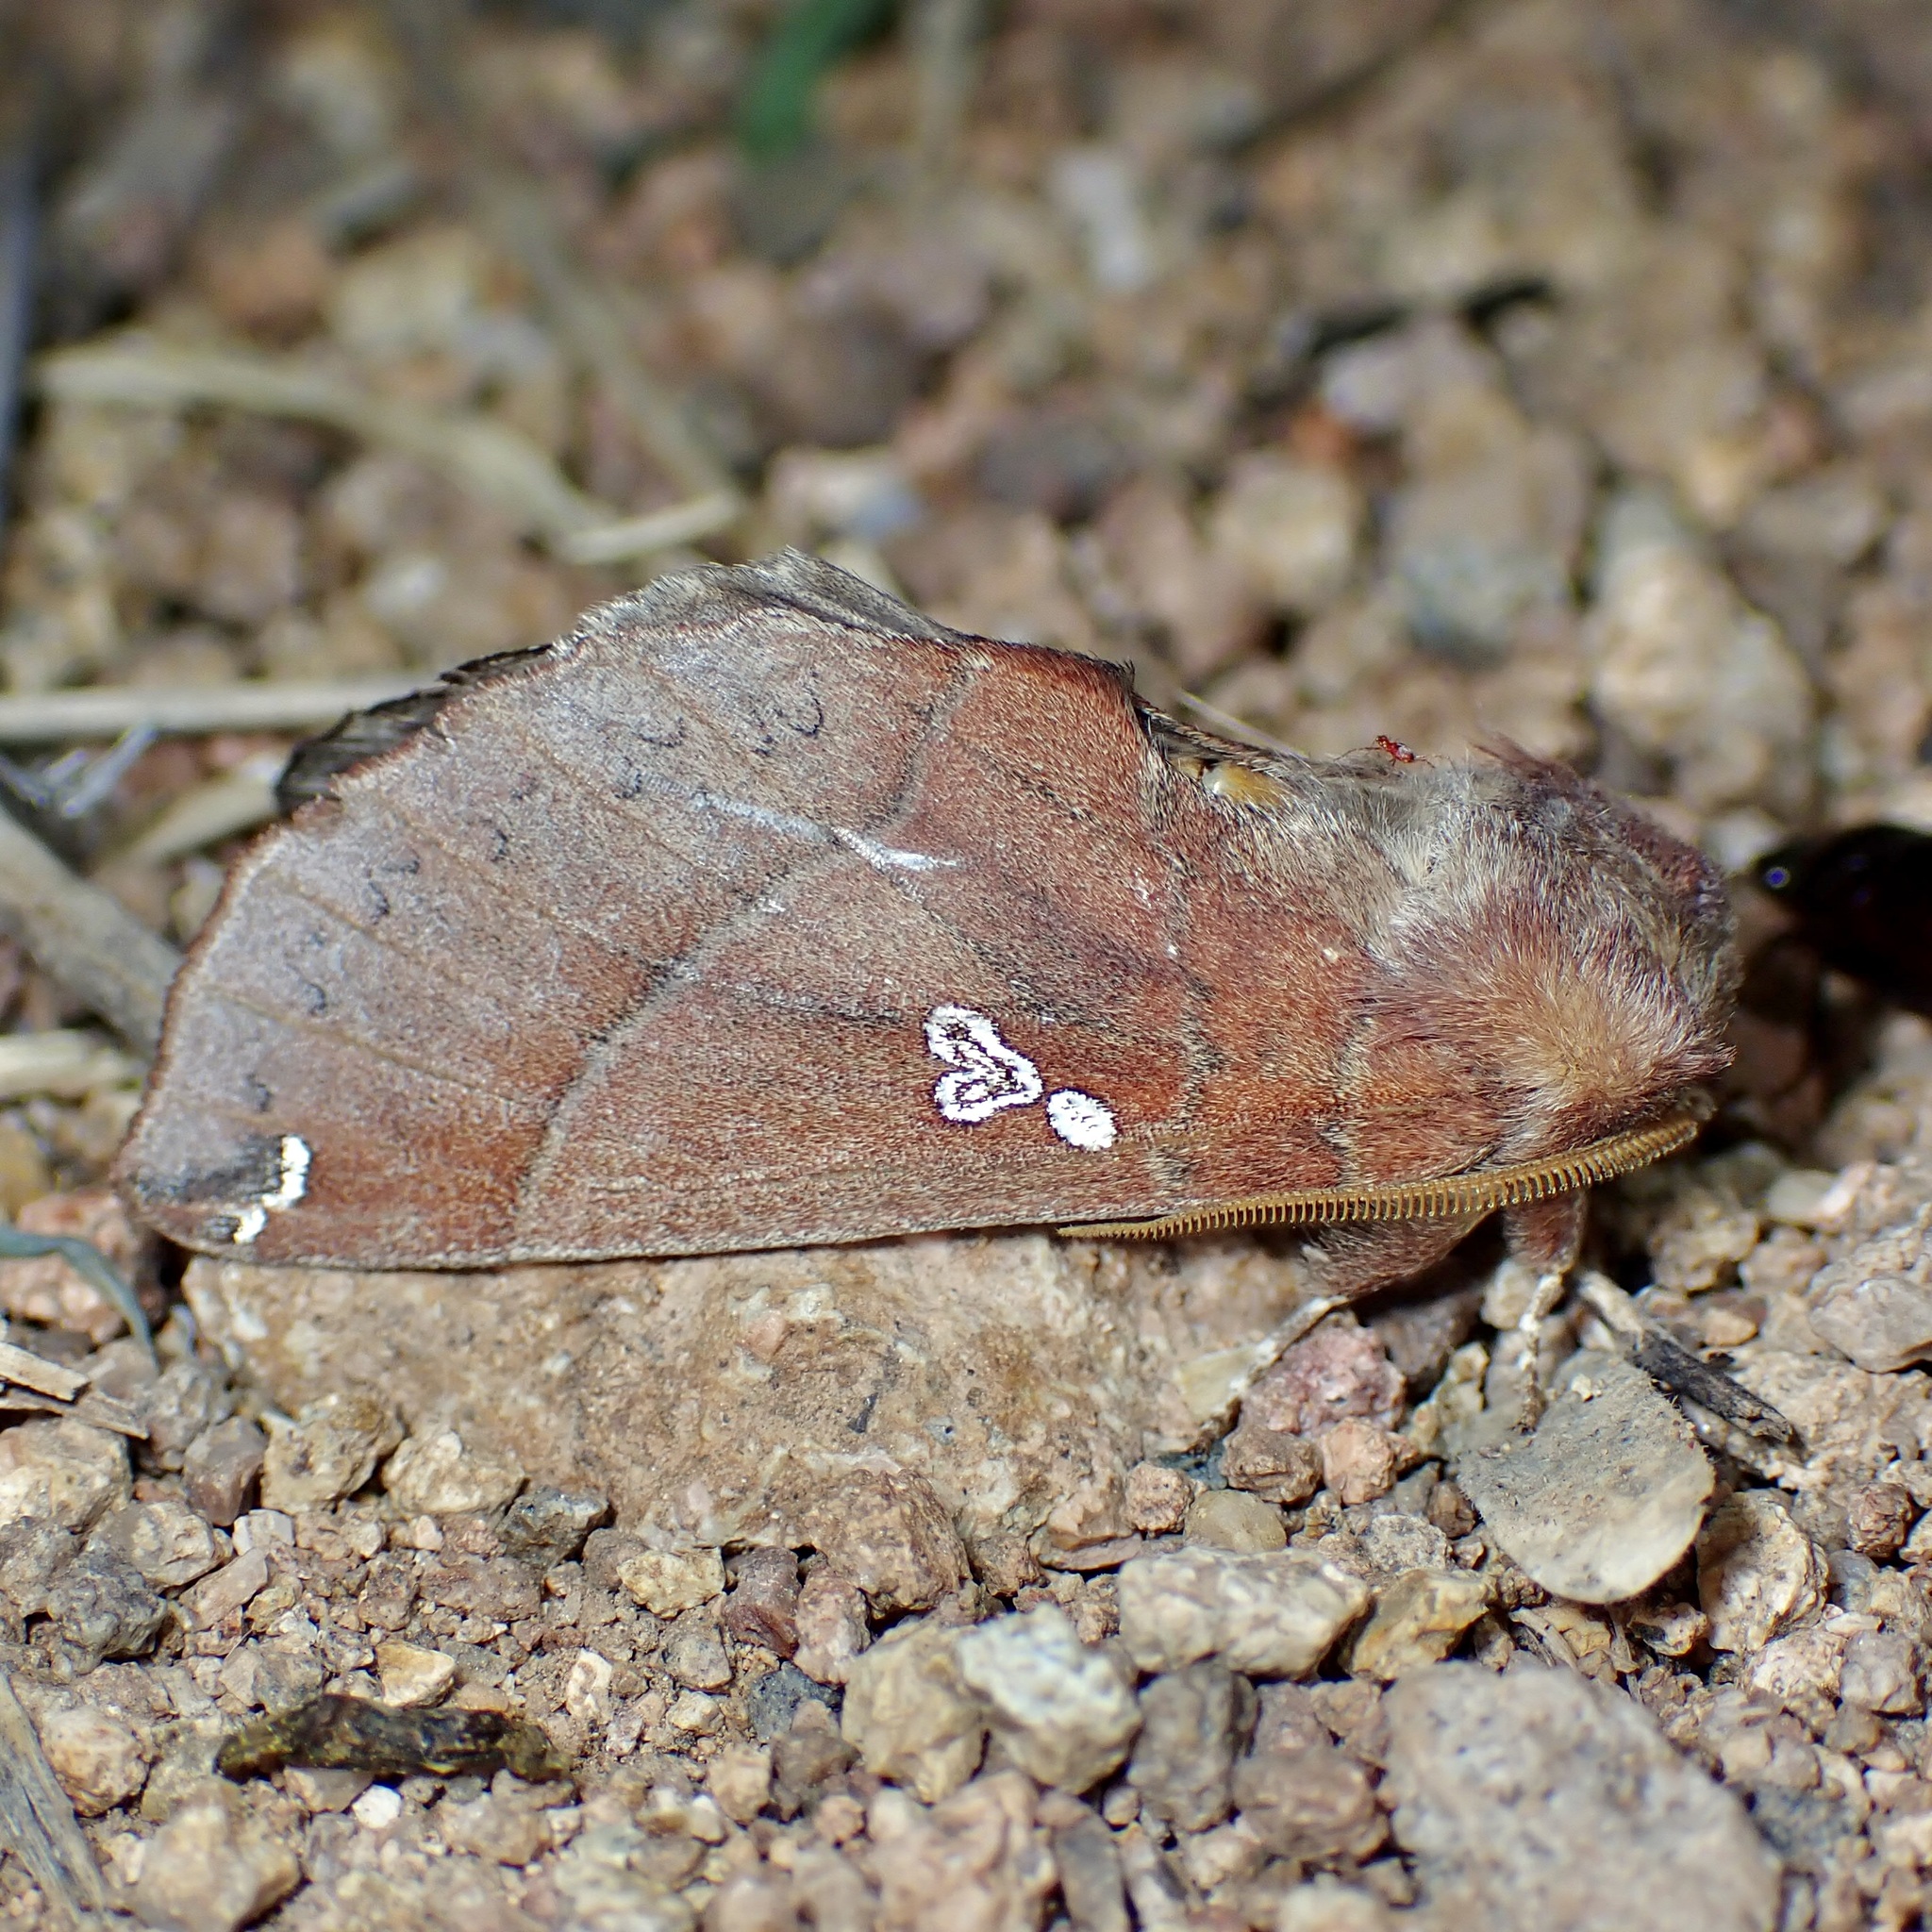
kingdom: Animalia
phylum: Arthropoda
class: Insecta
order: Lepidoptera
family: Notodontidae
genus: Pseudhapigia
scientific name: Pseudhapigia brunnea
